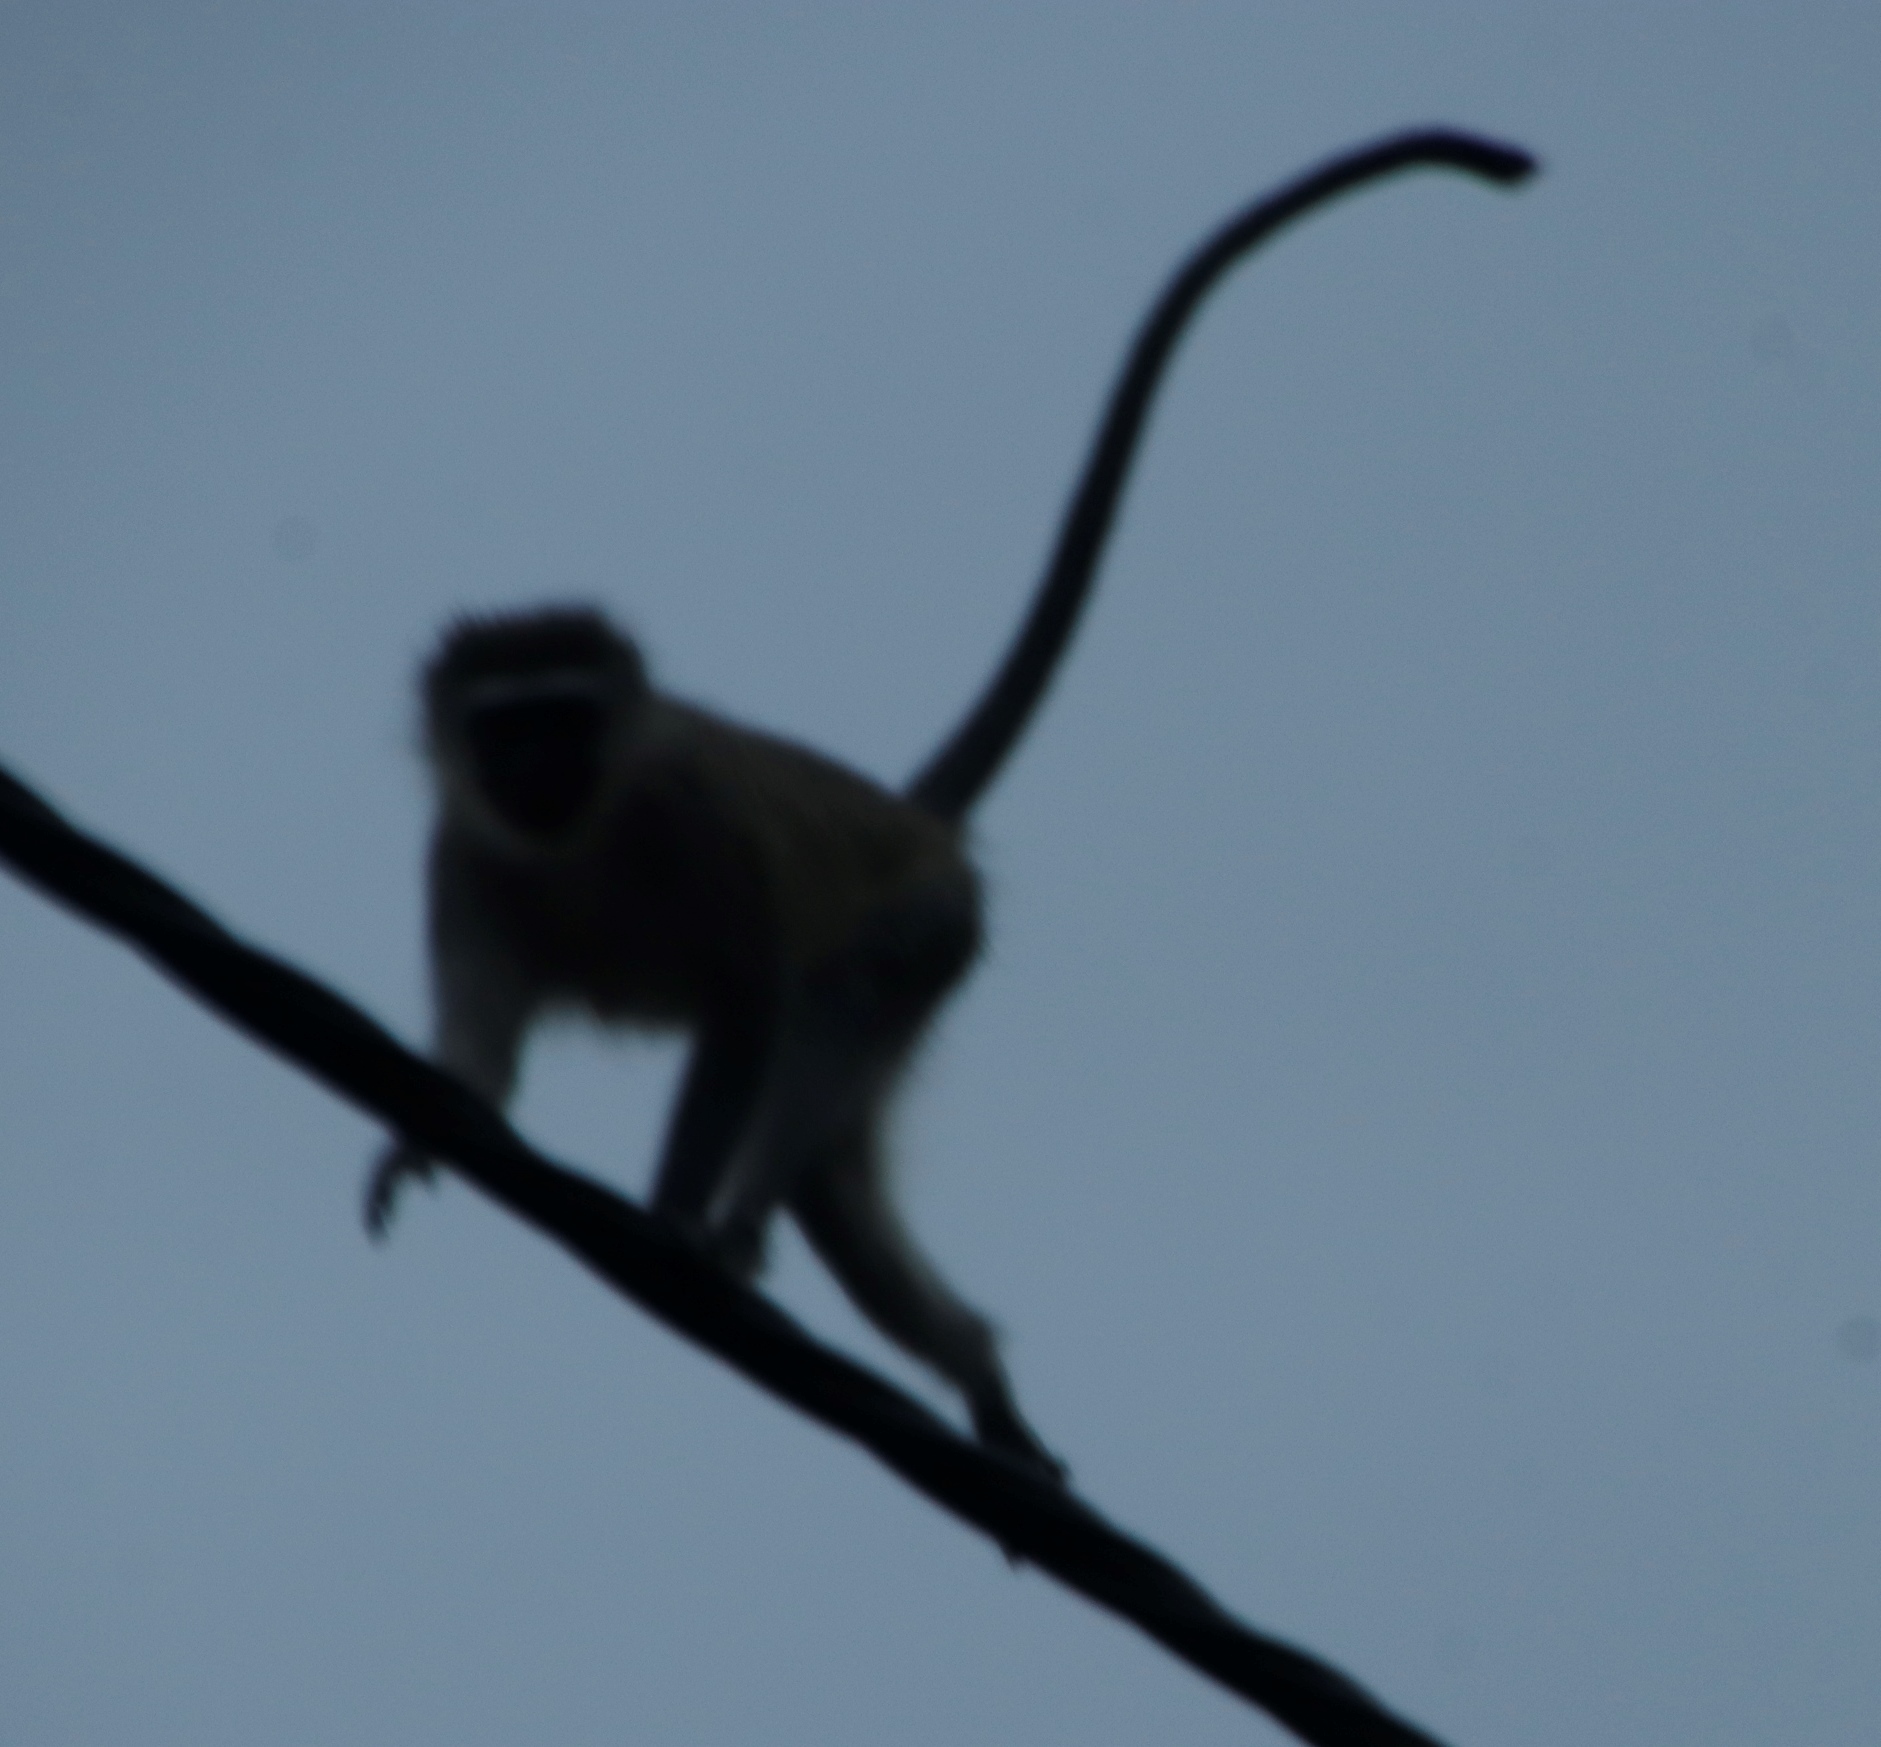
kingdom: Animalia
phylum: Chordata
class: Mammalia
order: Primates
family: Cercopithecidae
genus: Chlorocebus
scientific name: Chlorocebus pygerythrus
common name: Vervet monkey
